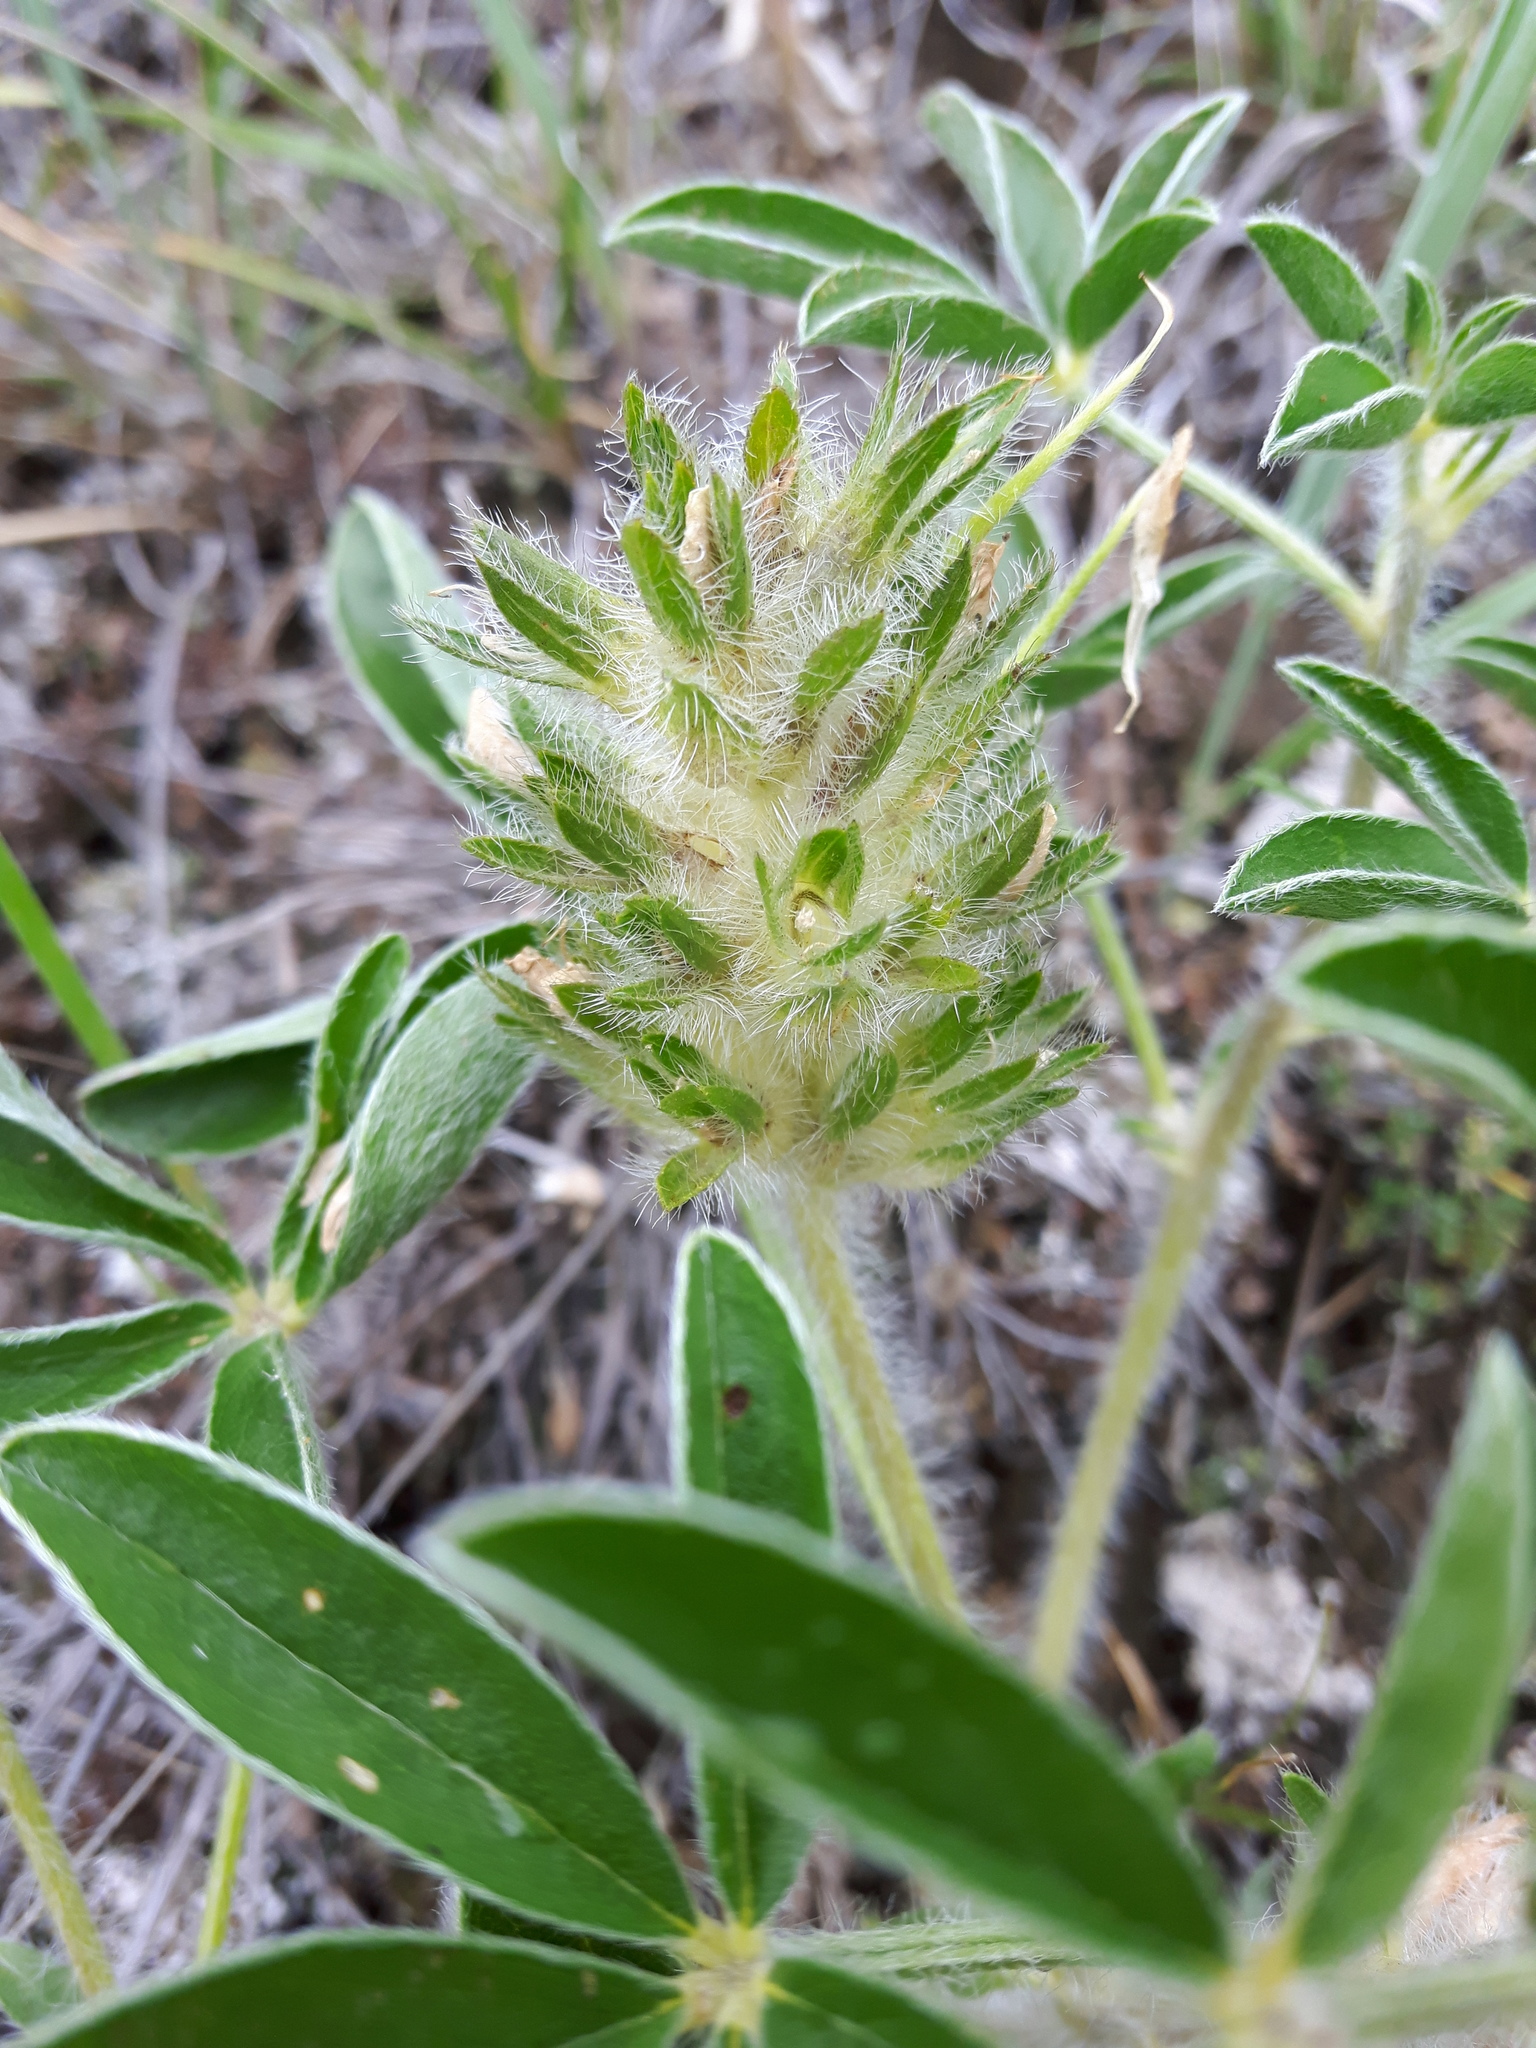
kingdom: Plantae
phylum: Tracheophyta
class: Magnoliopsida
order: Fabales
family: Fabaceae
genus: Pediomelum
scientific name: Pediomelum esculentum
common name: Indian-turnip
